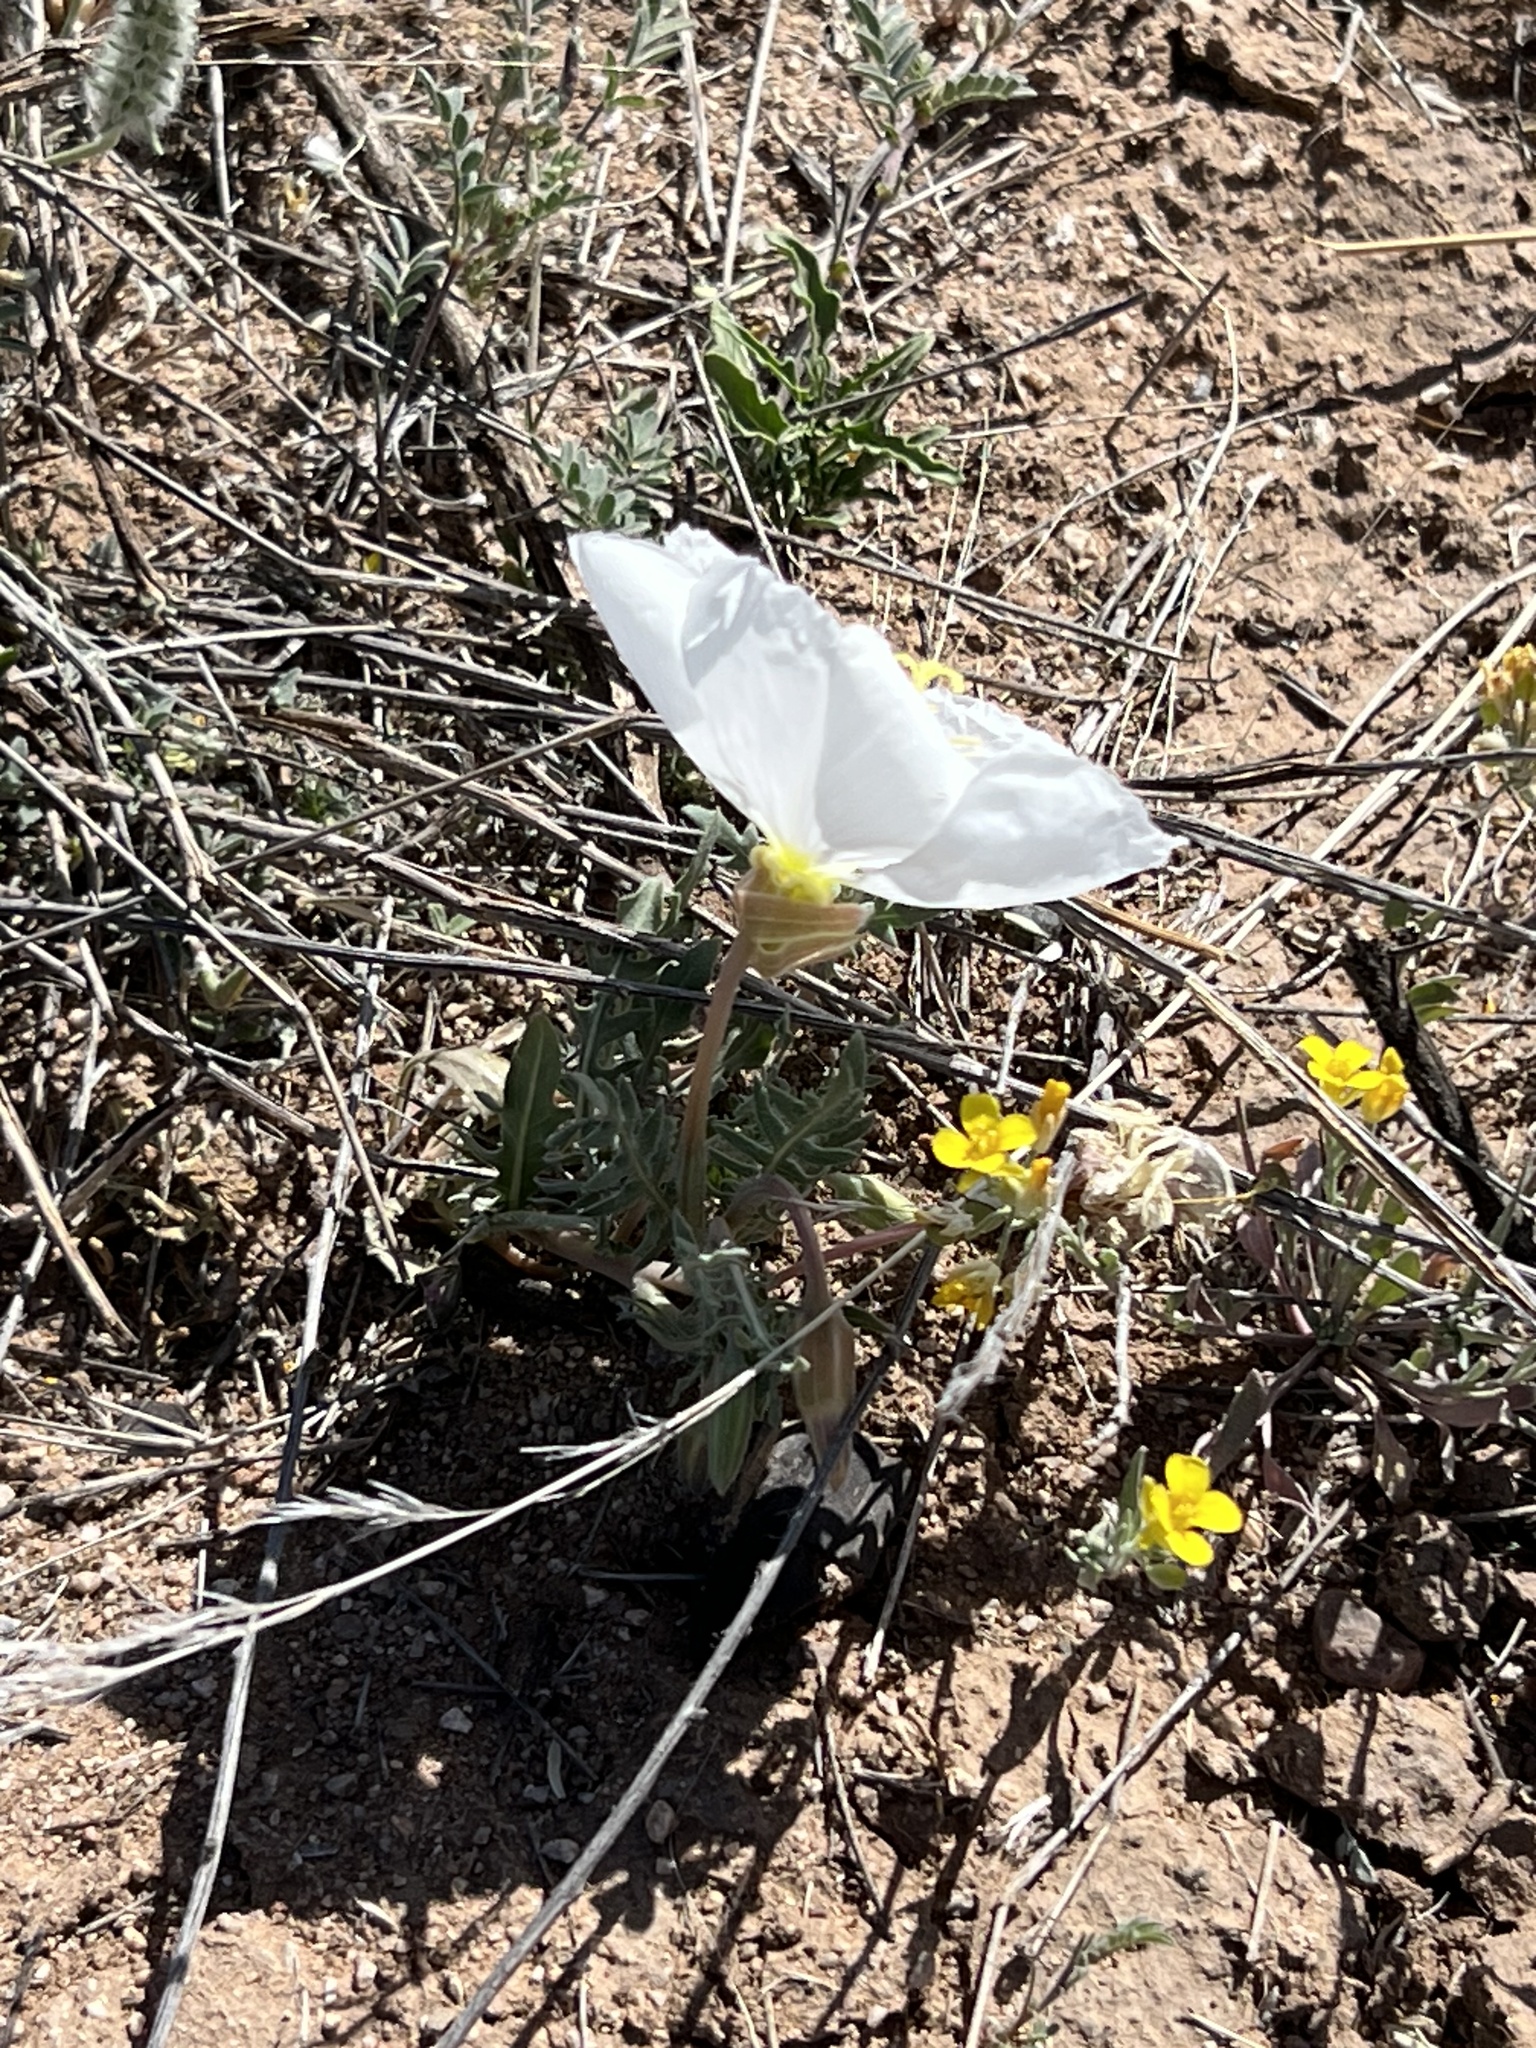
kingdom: Plantae
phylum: Tracheophyta
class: Magnoliopsida
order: Myrtales
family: Onagraceae
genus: Oenothera
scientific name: Oenothera albicaulis
